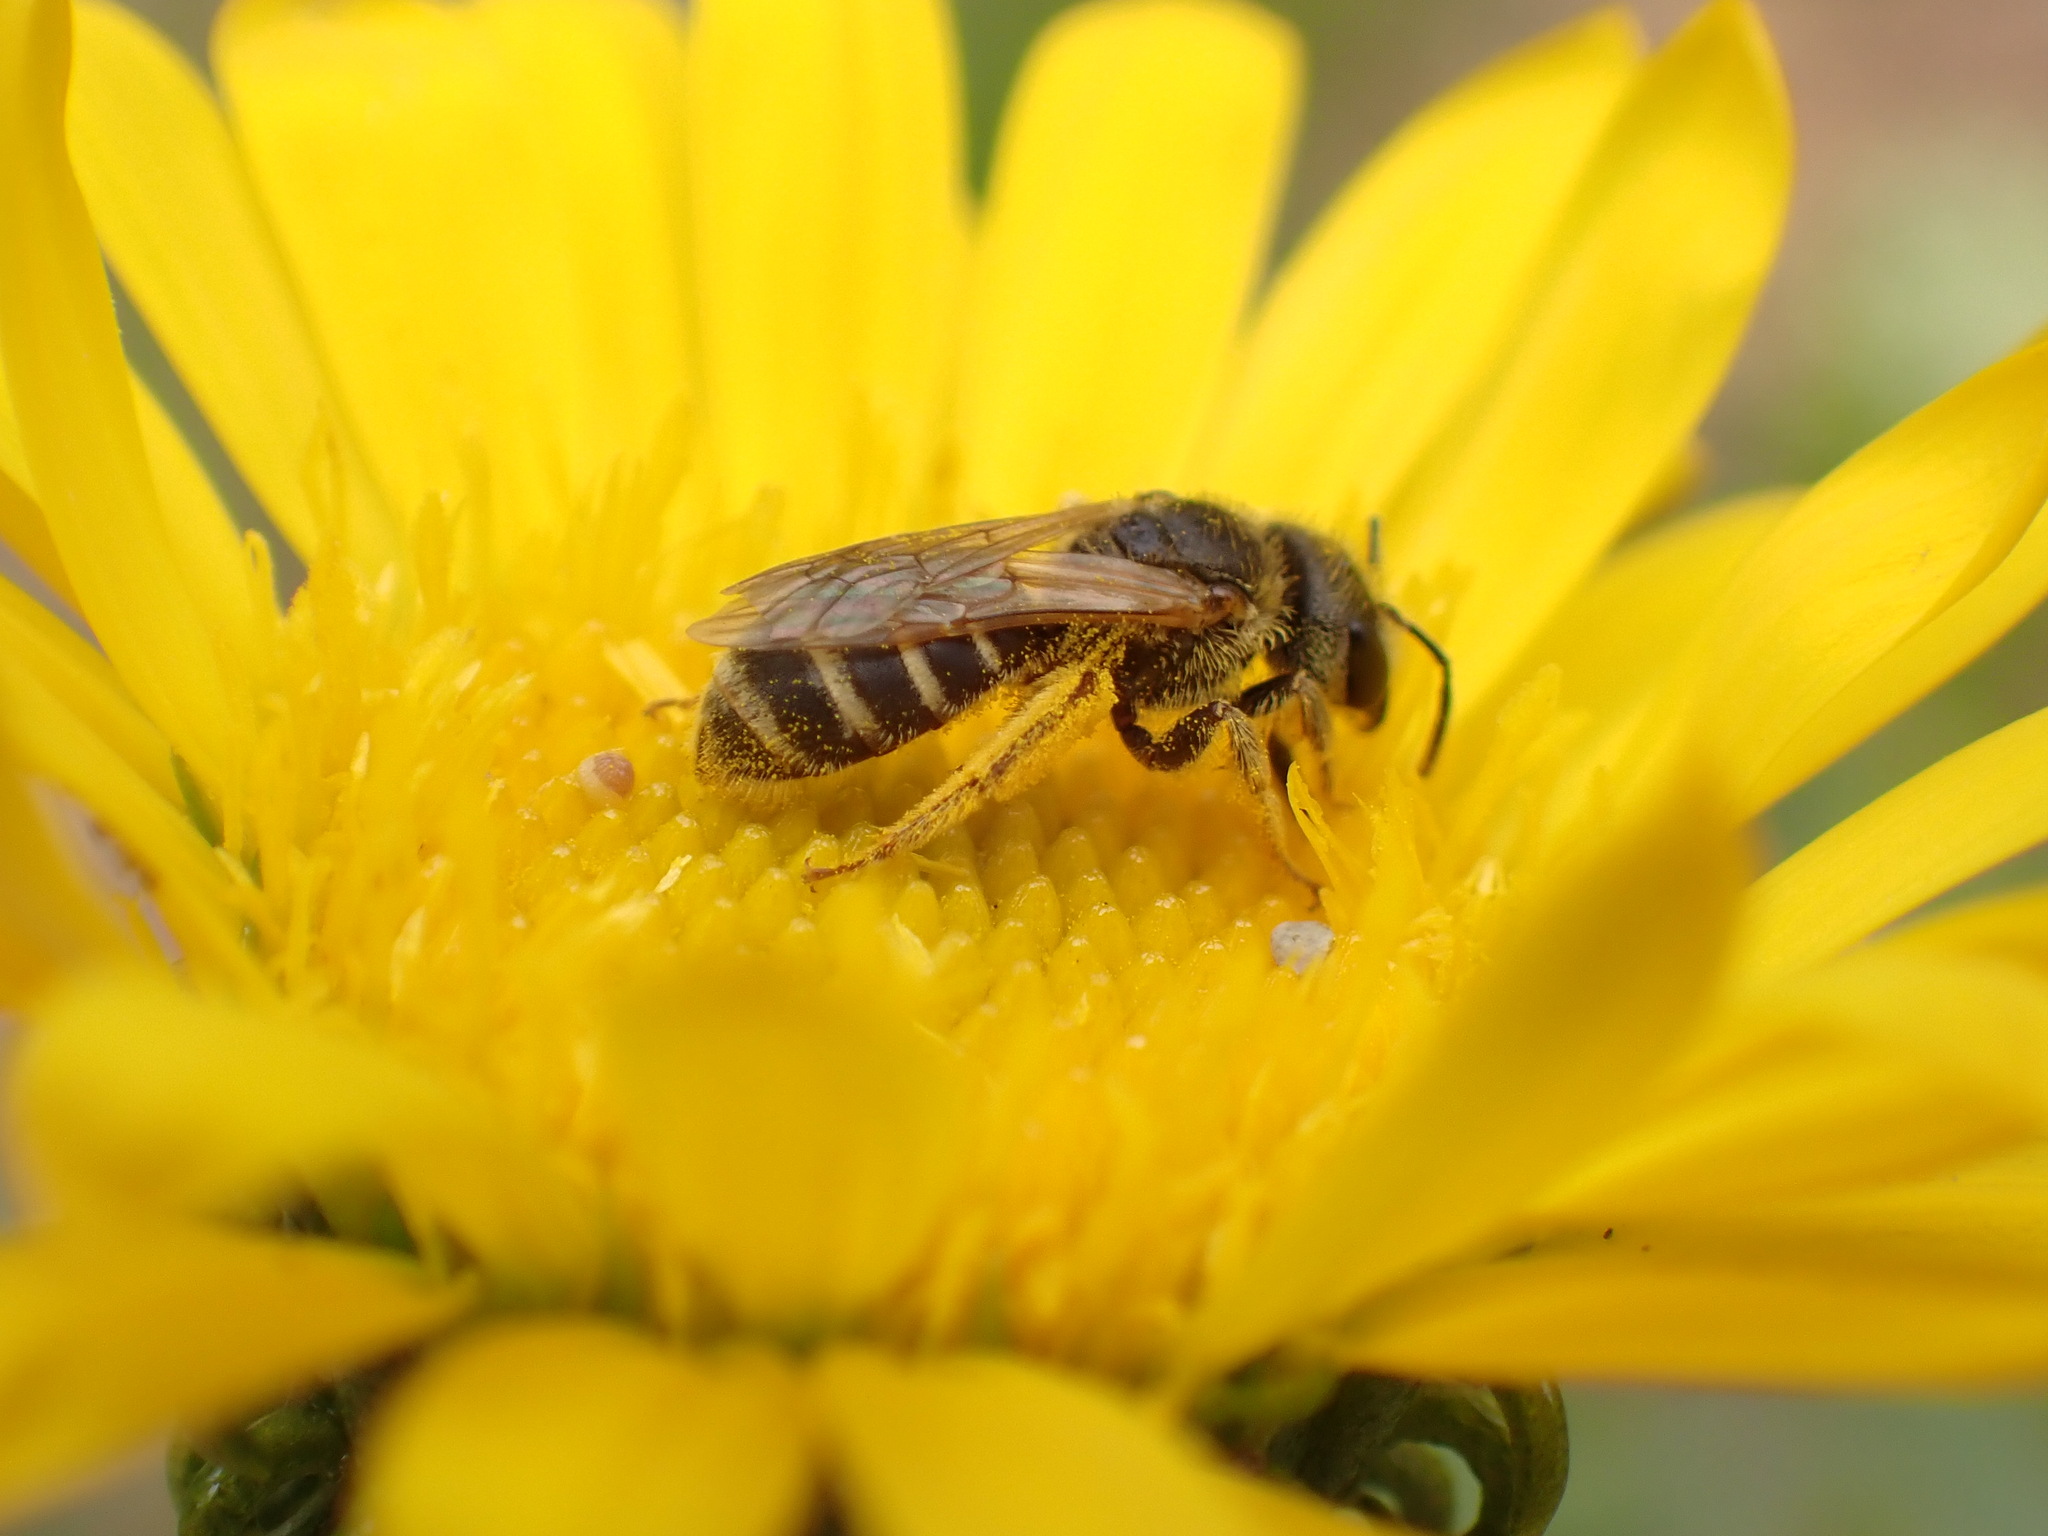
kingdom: Animalia
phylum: Arthropoda
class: Insecta
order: Hymenoptera
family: Halictidae
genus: Halictus
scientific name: Halictus ligatus
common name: Ligated furrow bee
